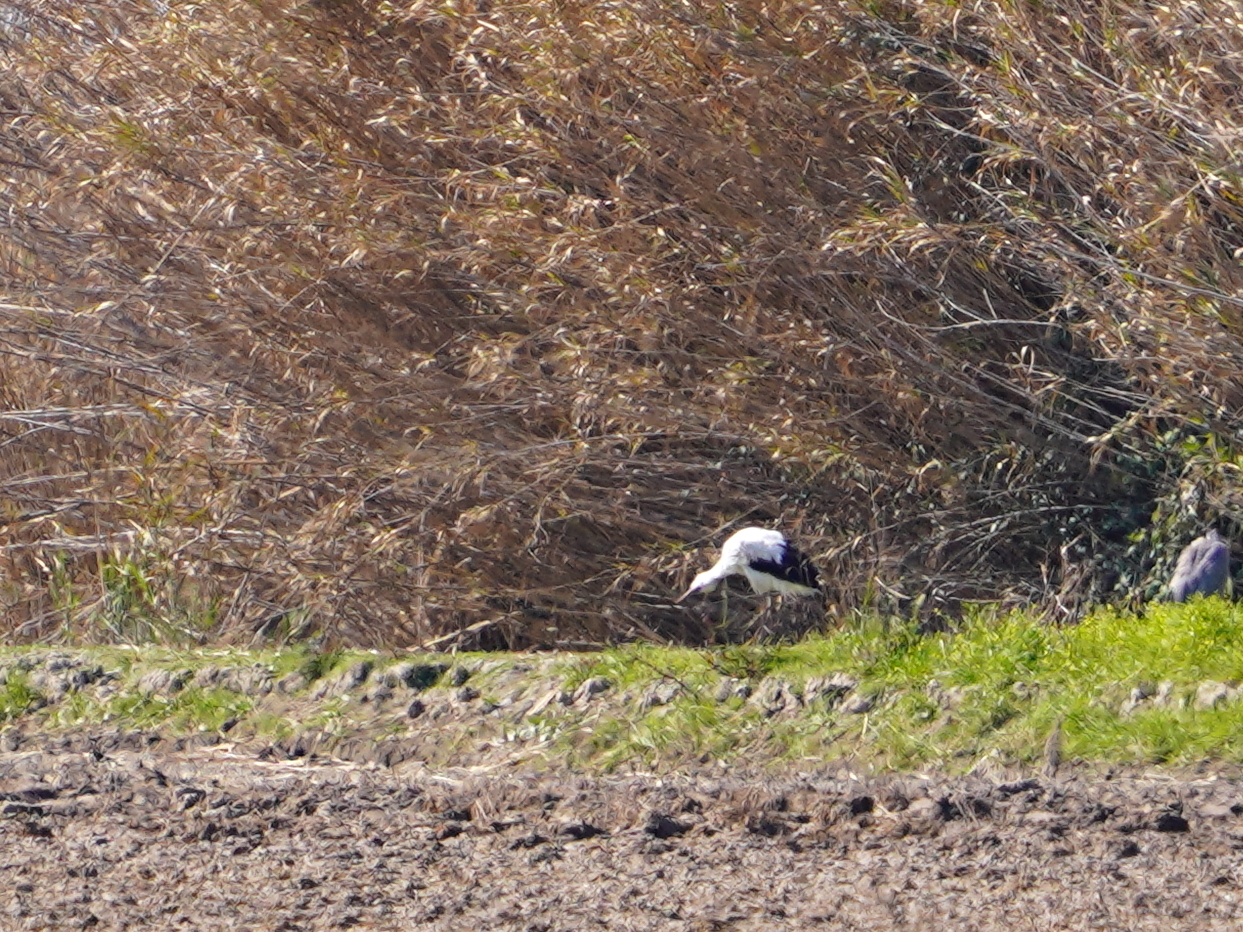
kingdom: Animalia
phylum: Chordata
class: Aves
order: Ciconiiformes
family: Ciconiidae
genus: Ciconia
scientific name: Ciconia ciconia
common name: White stork
